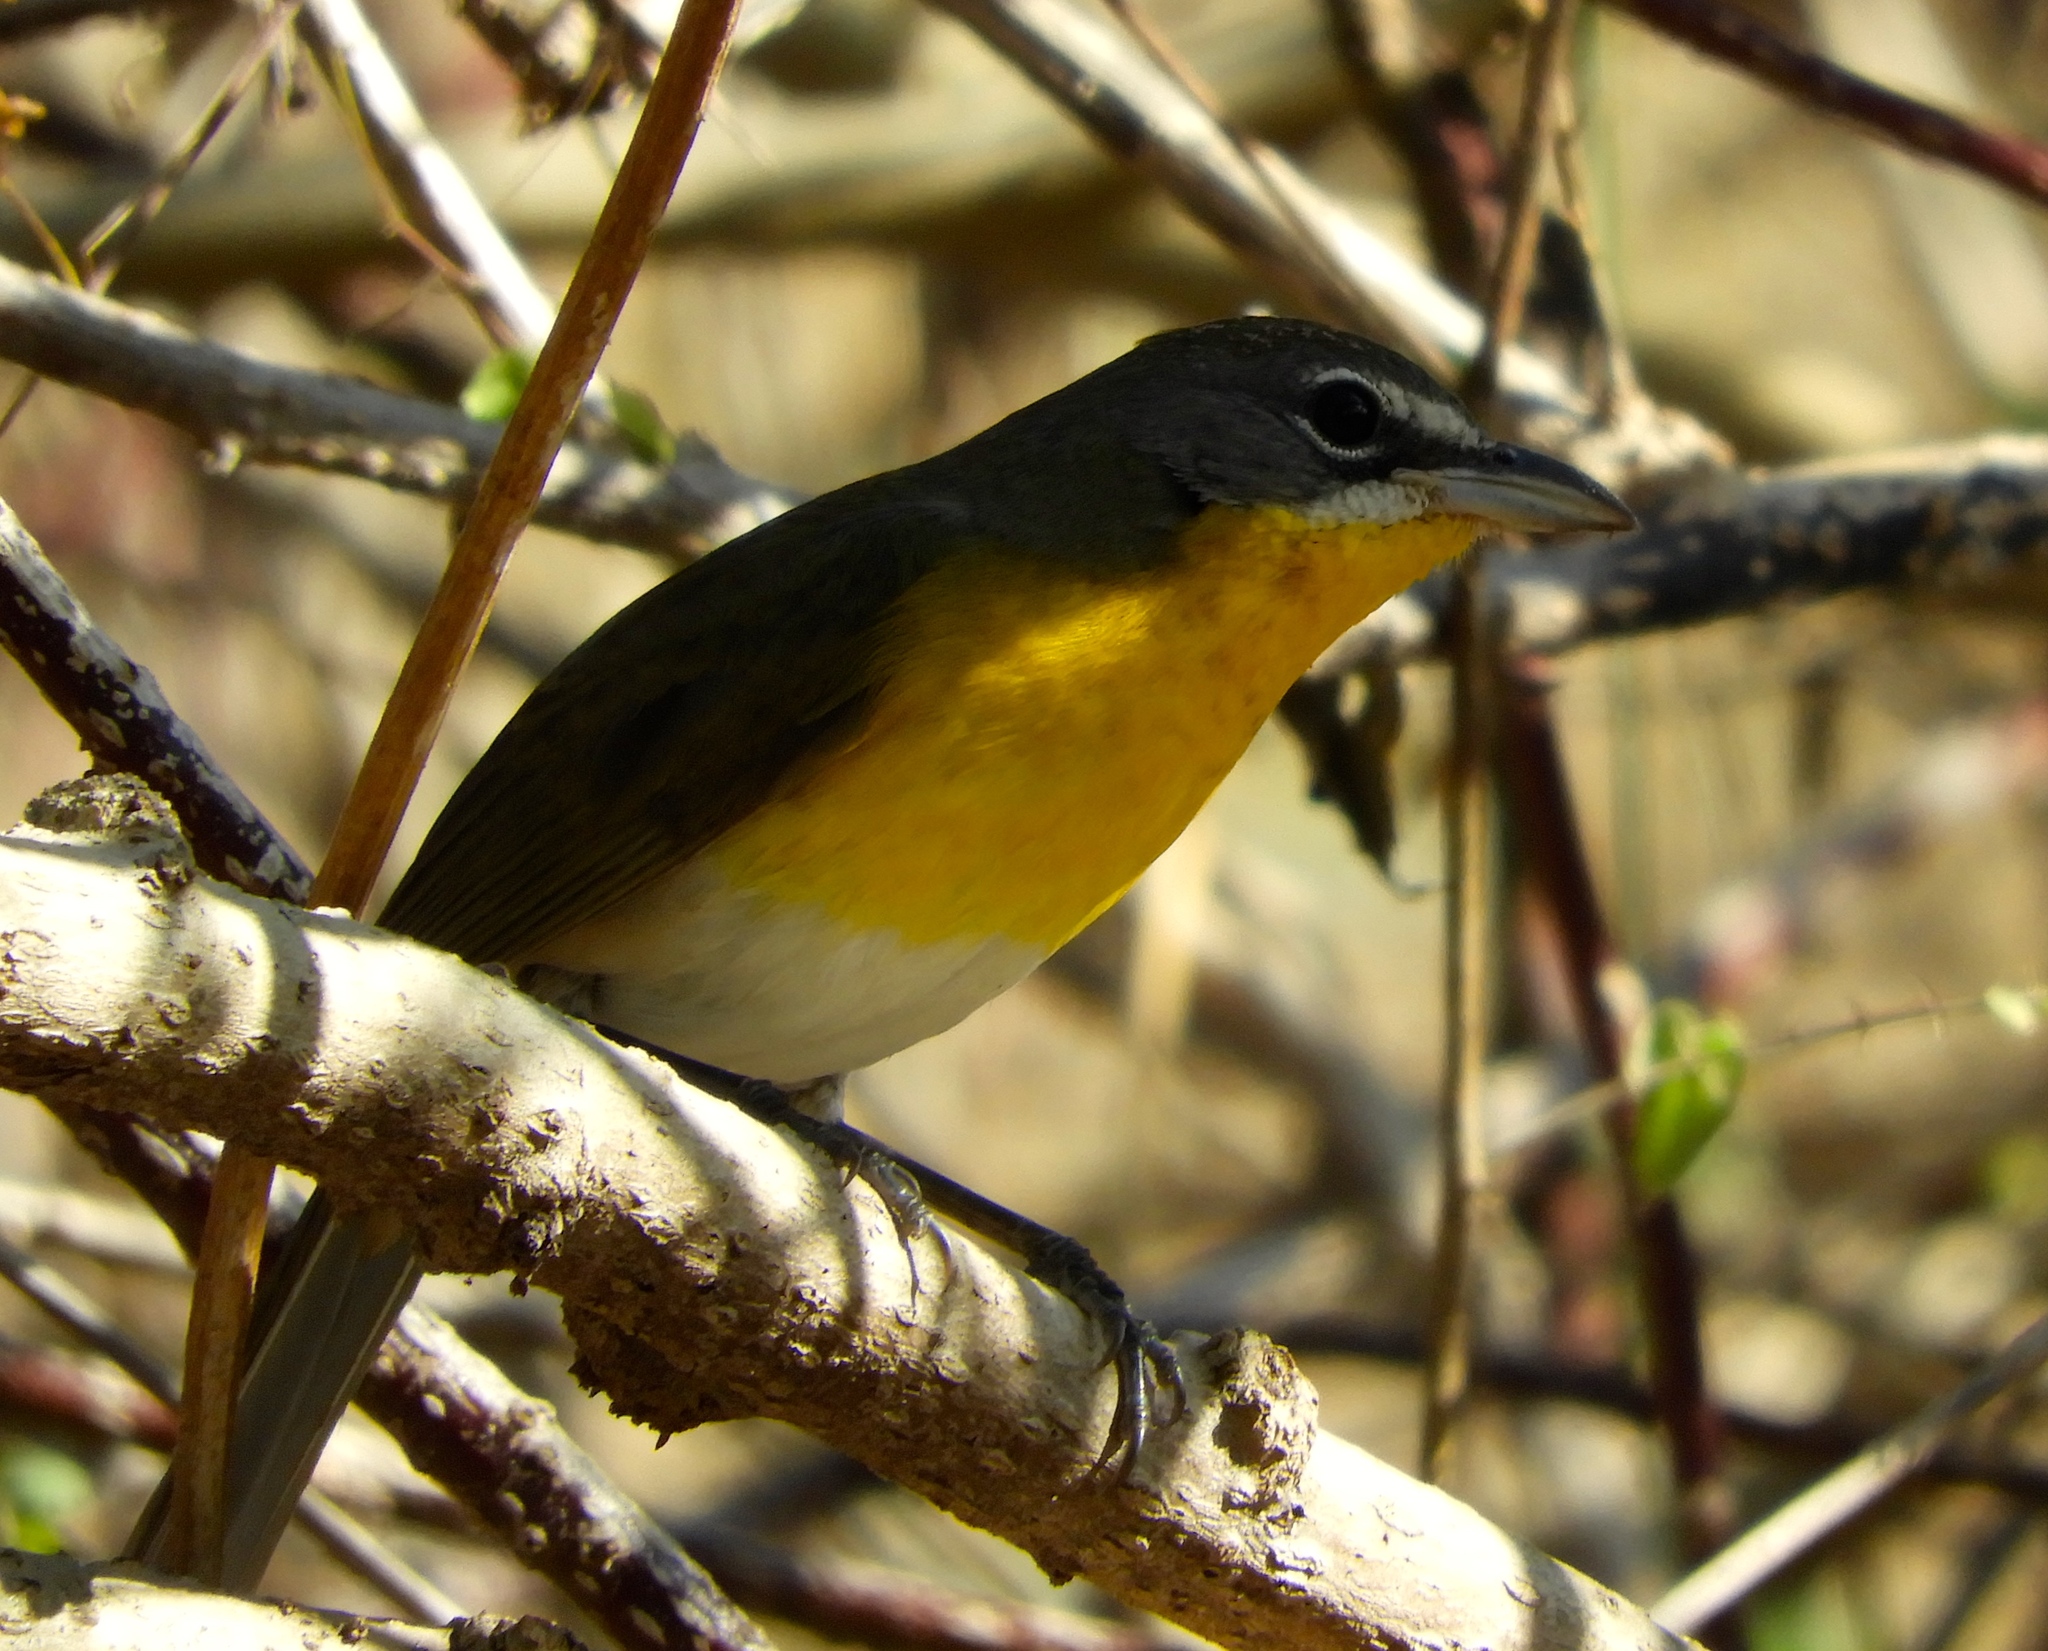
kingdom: Animalia
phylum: Chordata
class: Aves
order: Passeriformes
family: Parulidae
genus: Icteria
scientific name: Icteria virens
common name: Yellow-breasted chat
